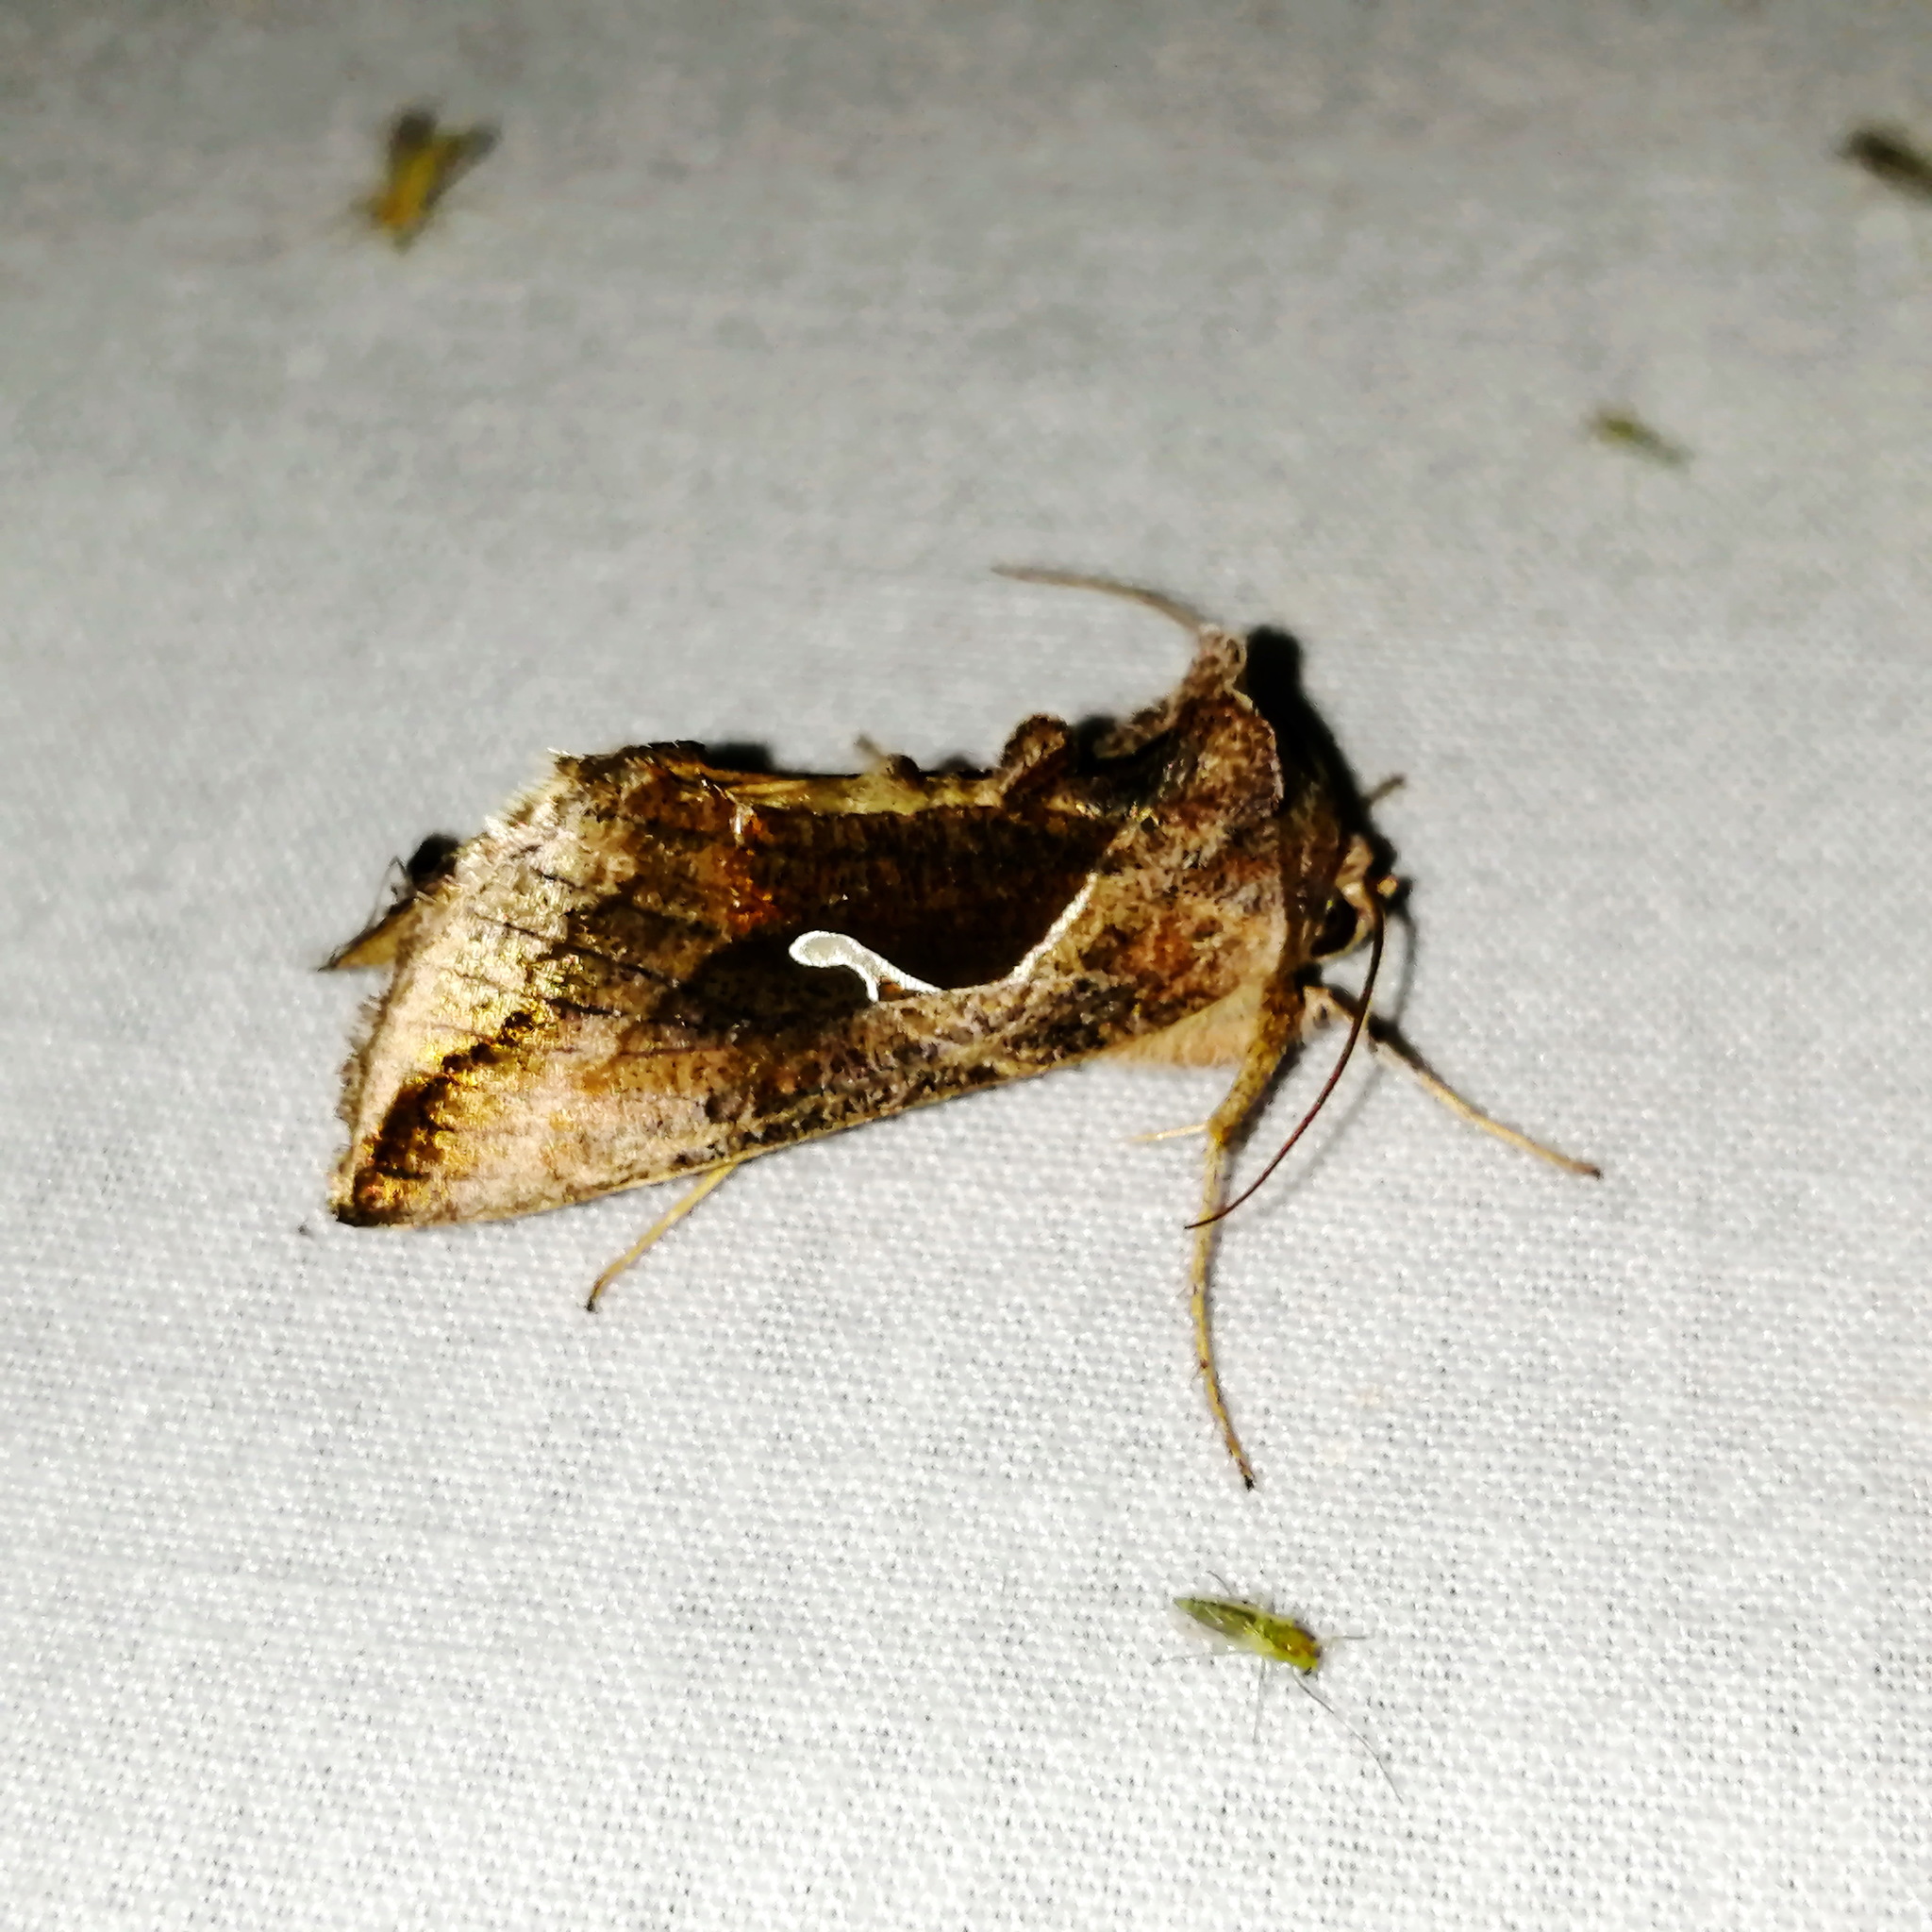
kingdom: Animalia
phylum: Arthropoda
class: Insecta
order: Lepidoptera
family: Noctuidae
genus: Anagrapha
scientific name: Anagrapha falcifera
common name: Celery looper
